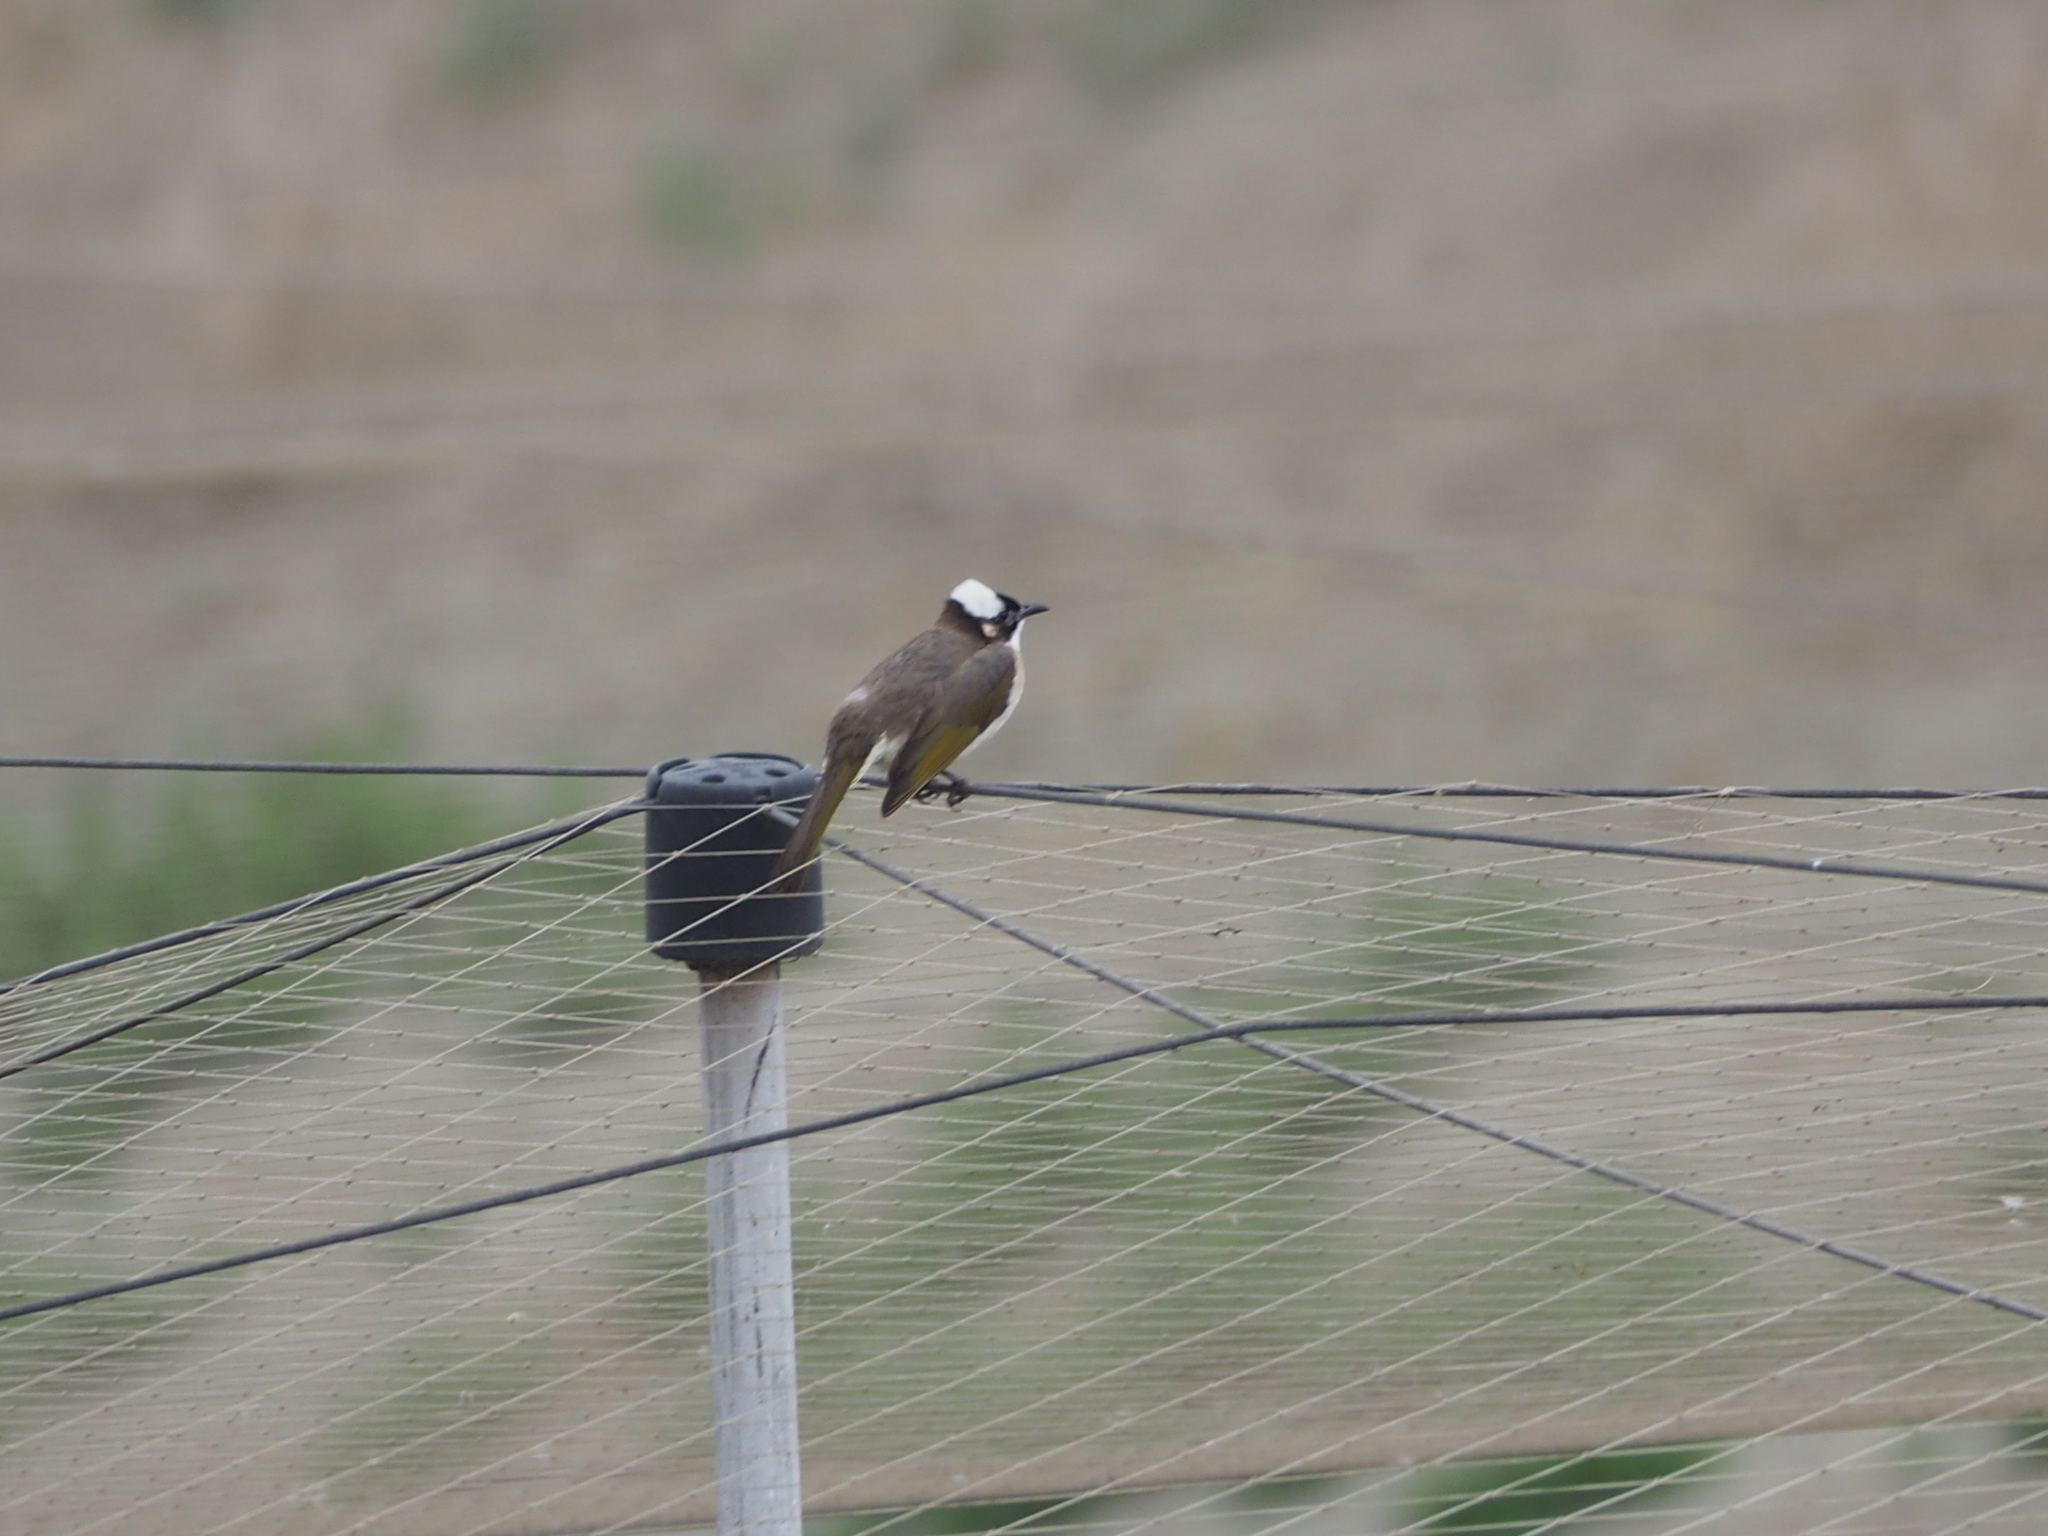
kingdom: Animalia
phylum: Chordata
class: Aves
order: Passeriformes
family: Pycnonotidae
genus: Pycnonotus
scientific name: Pycnonotus sinensis
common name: Light-vented bulbul
